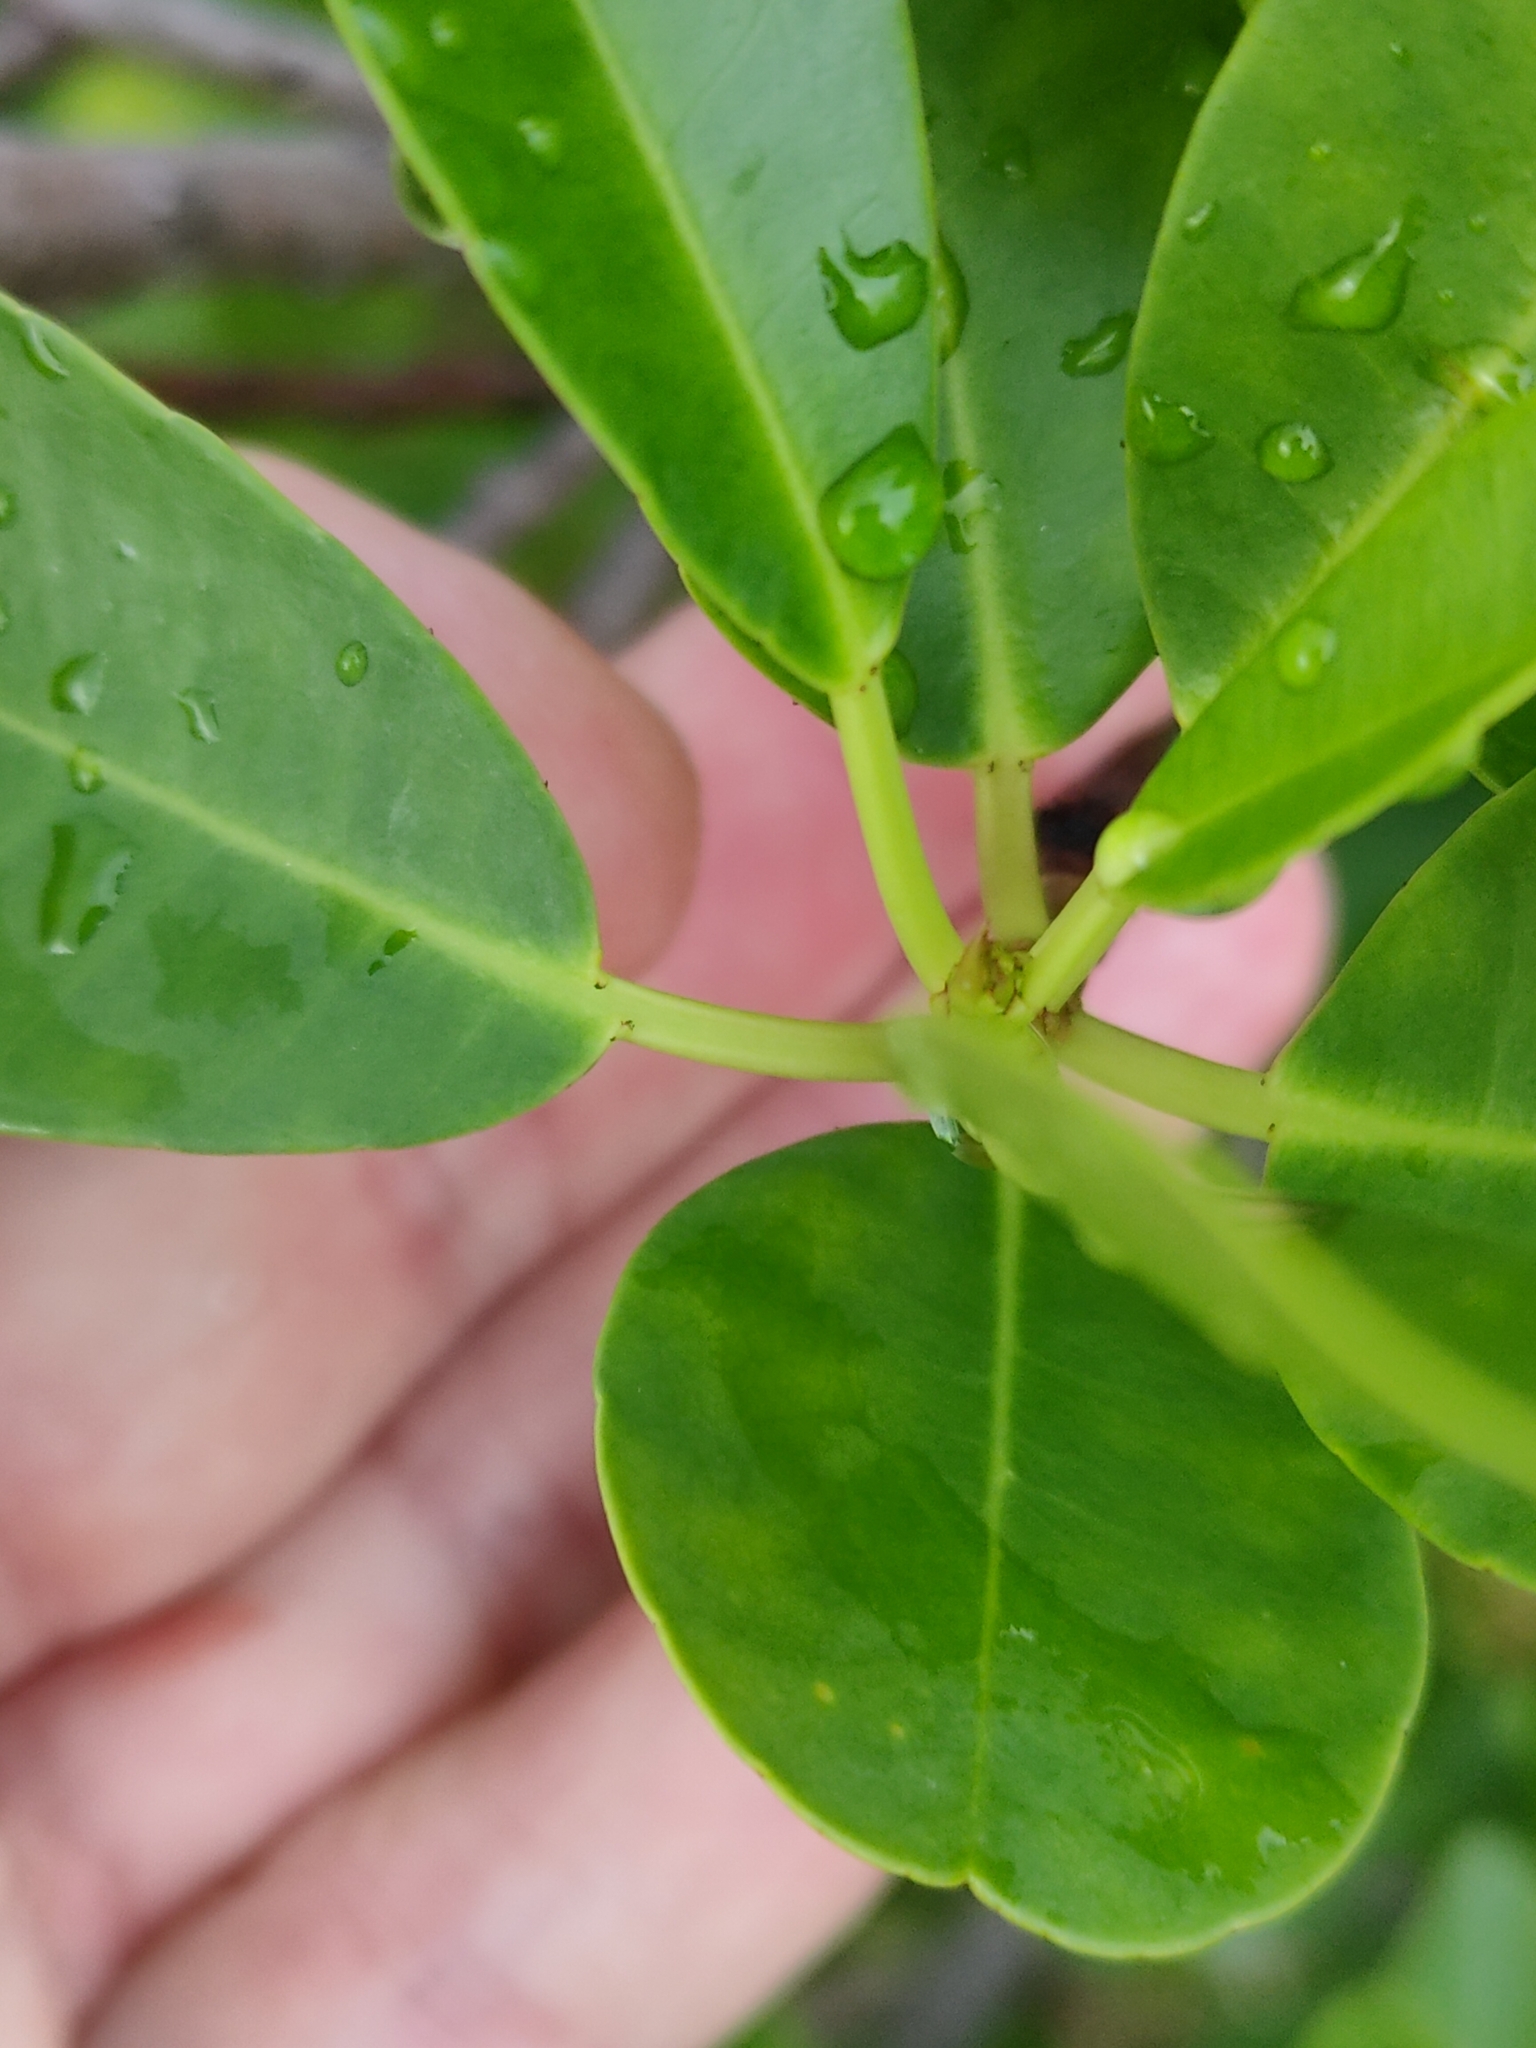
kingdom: Plantae
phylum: Tracheophyta
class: Magnoliopsida
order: Malpighiales
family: Euphorbiaceae
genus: Excoecaria
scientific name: Excoecaria agallocha
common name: River poisontree
